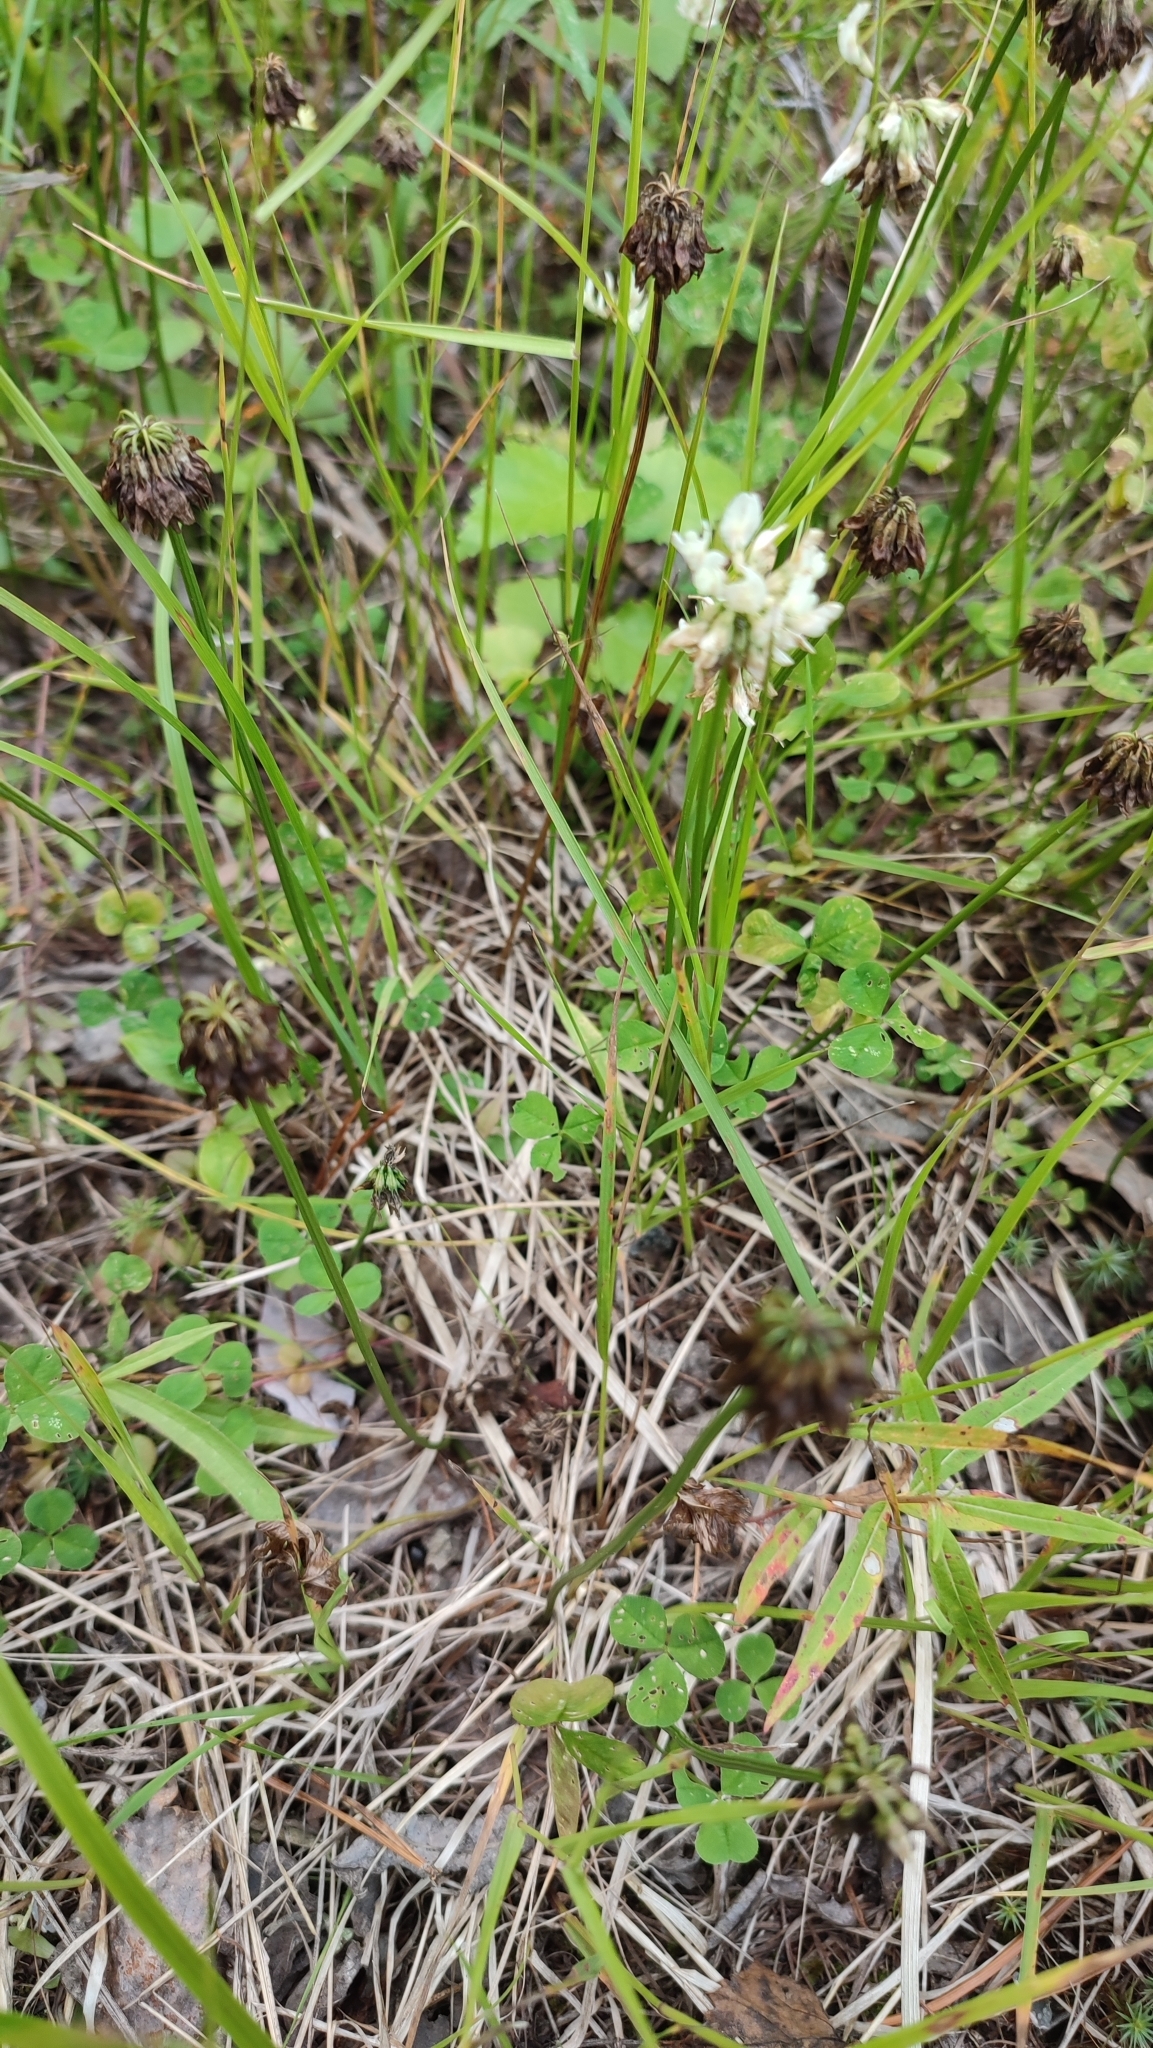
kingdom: Plantae
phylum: Tracheophyta
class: Magnoliopsida
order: Fabales
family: Fabaceae
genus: Trifolium
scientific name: Trifolium repens
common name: White clover
